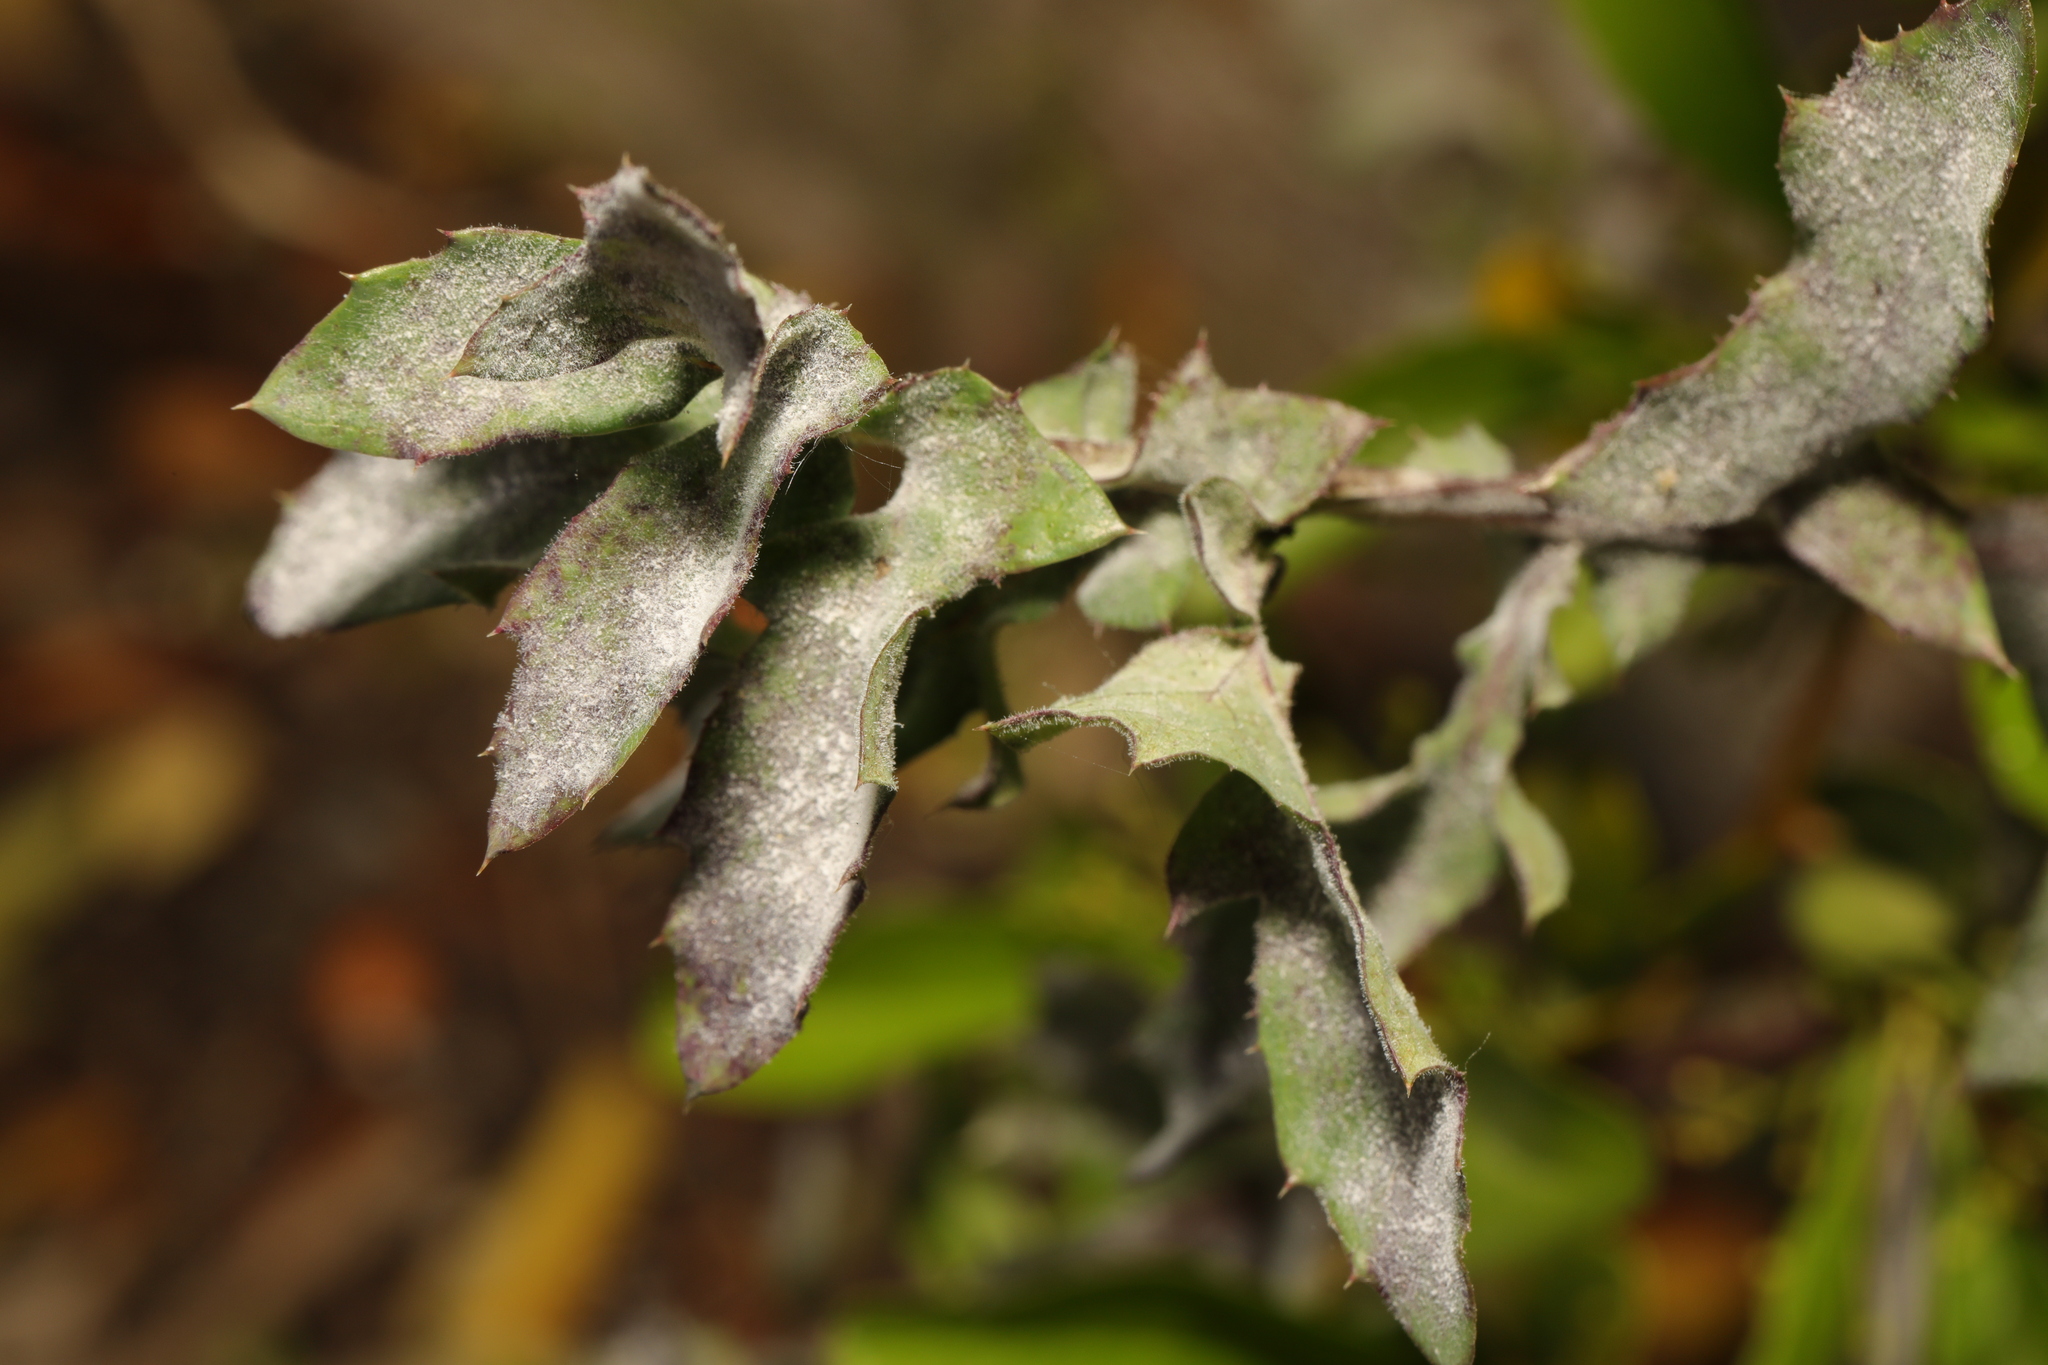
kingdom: Fungi
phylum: Ascomycota
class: Leotiomycetes
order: Helotiales
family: Erysiphaceae
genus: Golovinomyces
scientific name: Golovinomyces sonchicola
